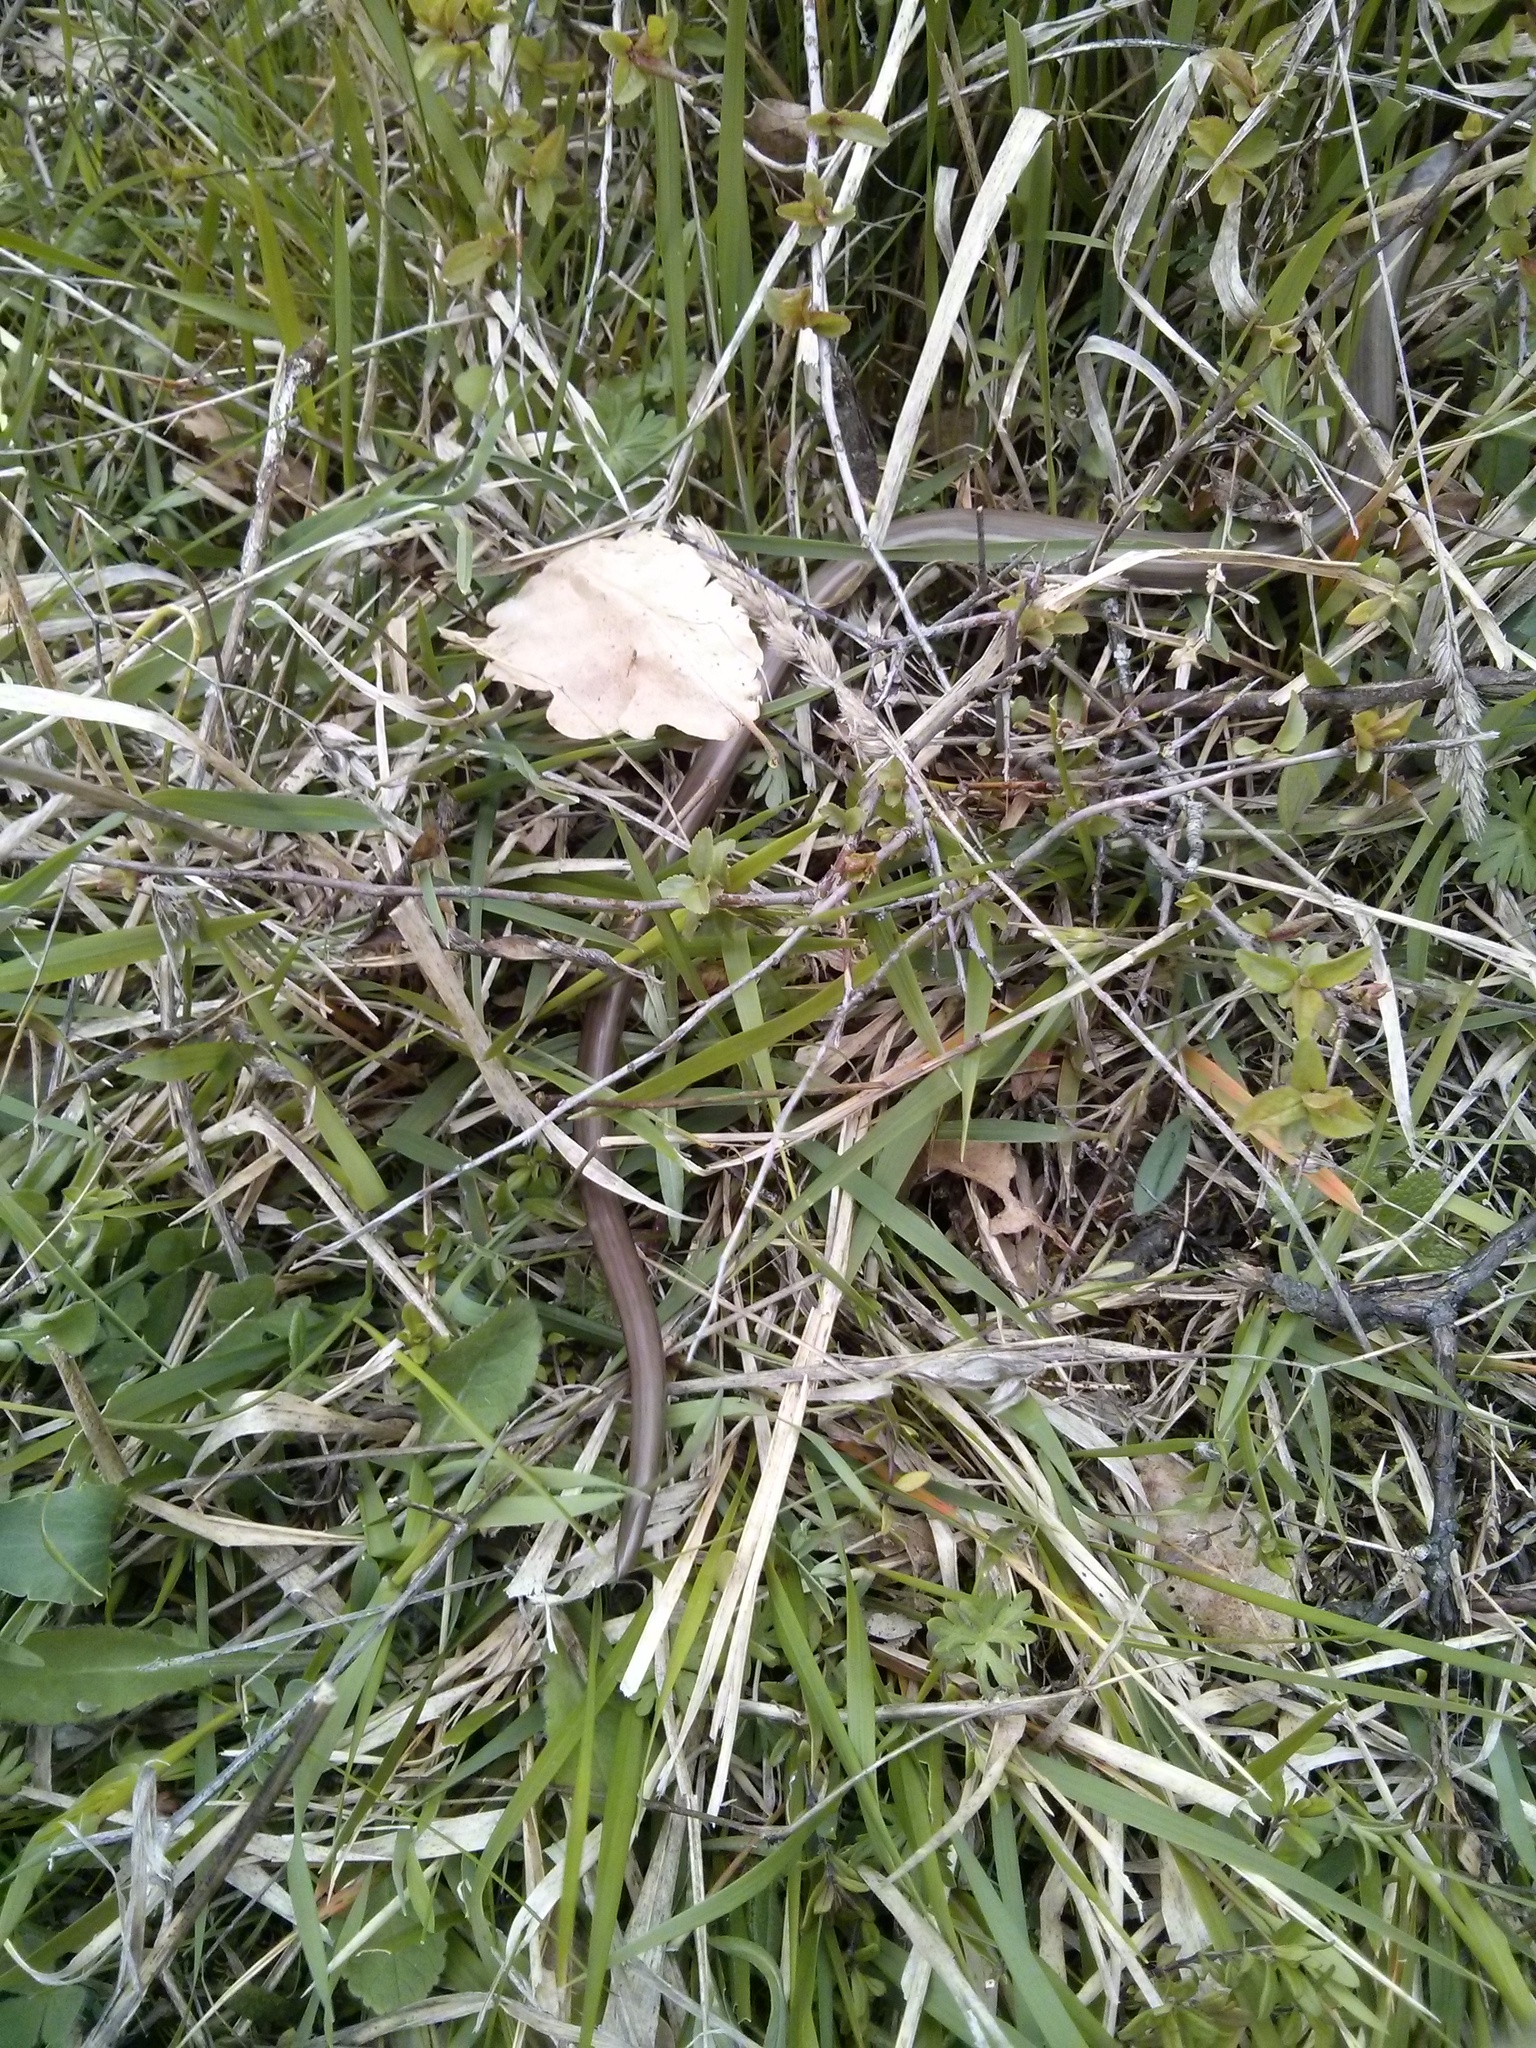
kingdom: Animalia
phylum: Chordata
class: Squamata
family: Anguidae
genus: Anguis
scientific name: Anguis veronensis
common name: Italian slow worm
